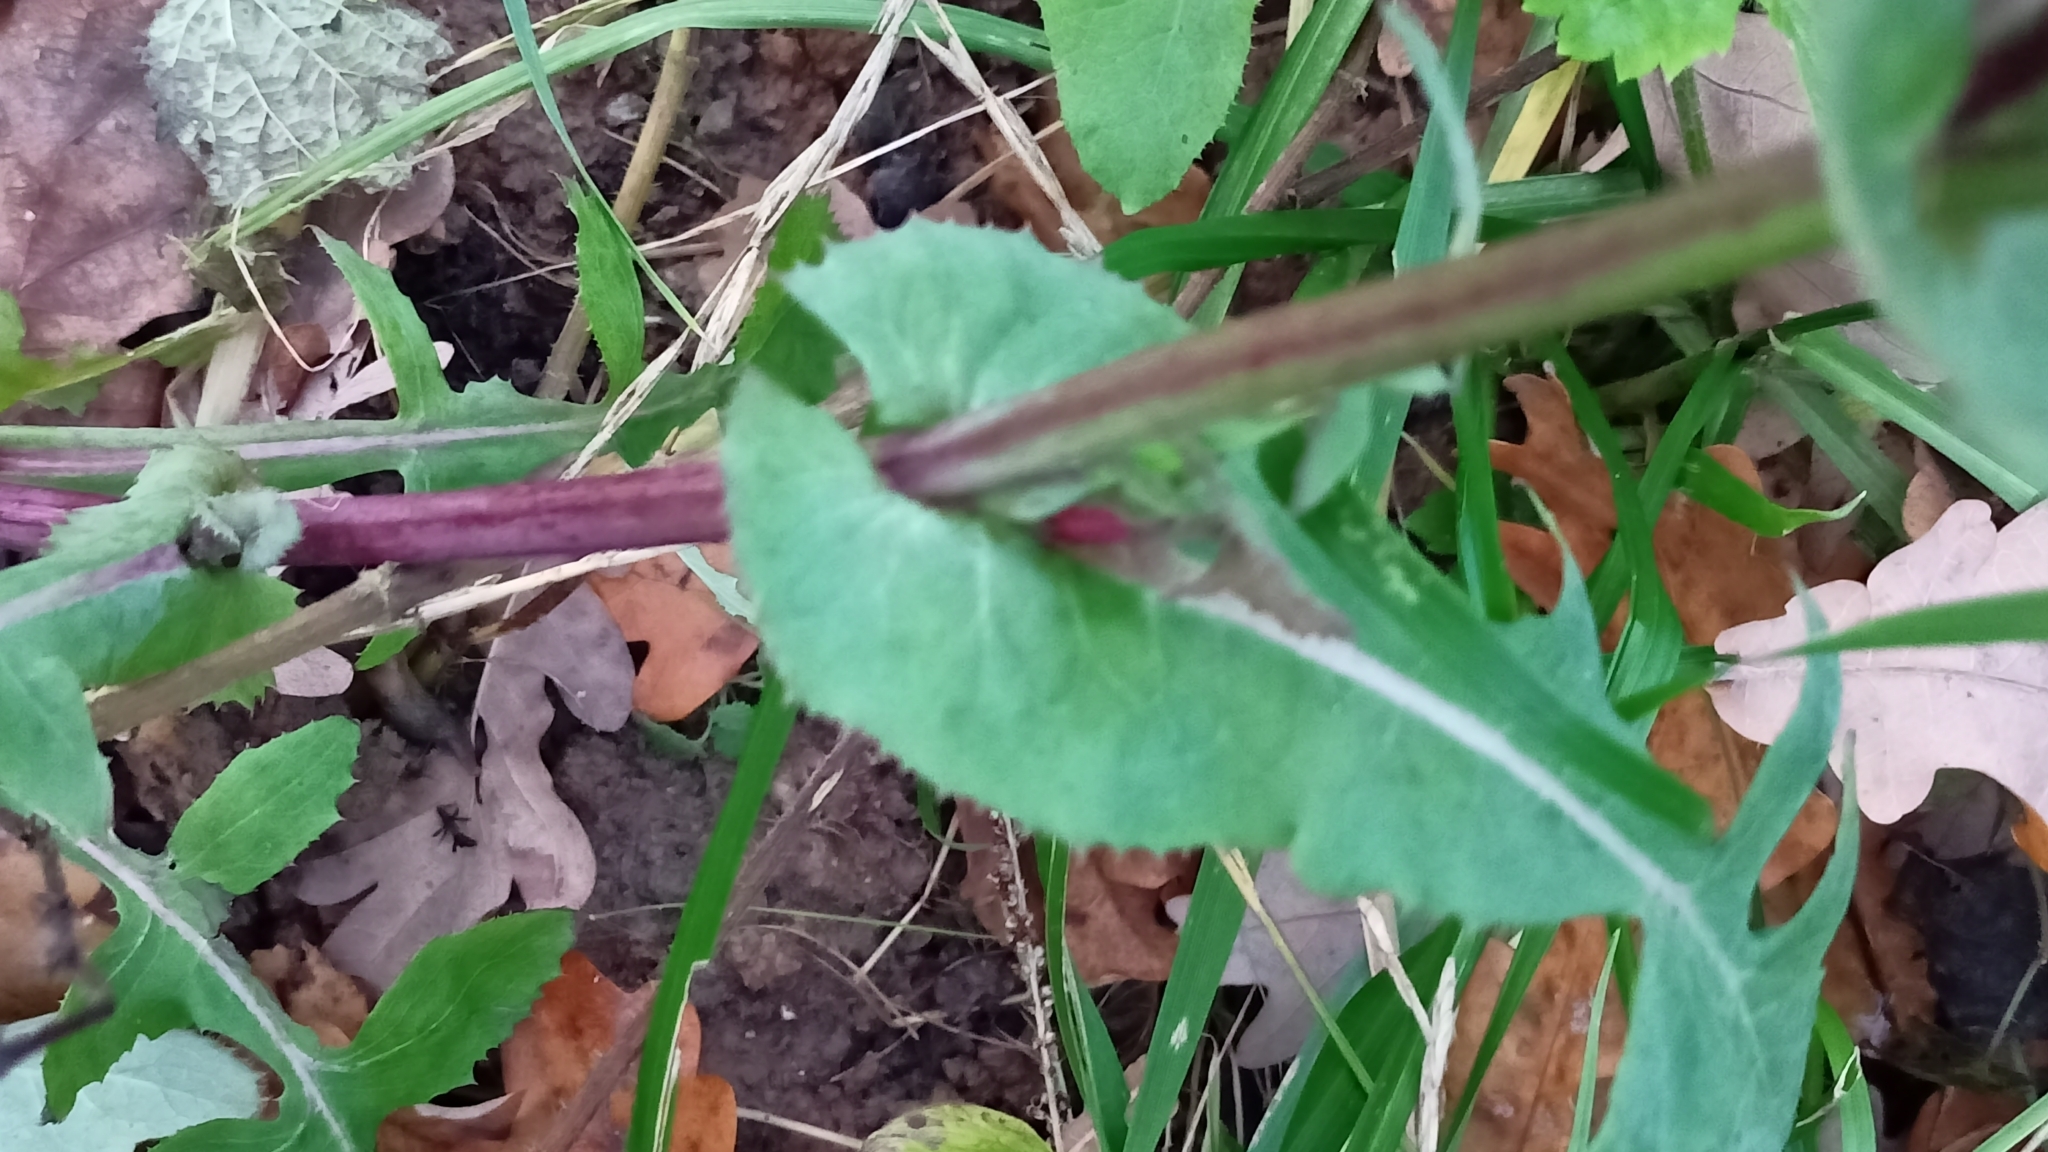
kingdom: Plantae
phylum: Tracheophyta
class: Magnoliopsida
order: Asterales
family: Asteraceae
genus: Sonchus
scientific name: Sonchus oleraceus
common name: Common sowthistle
